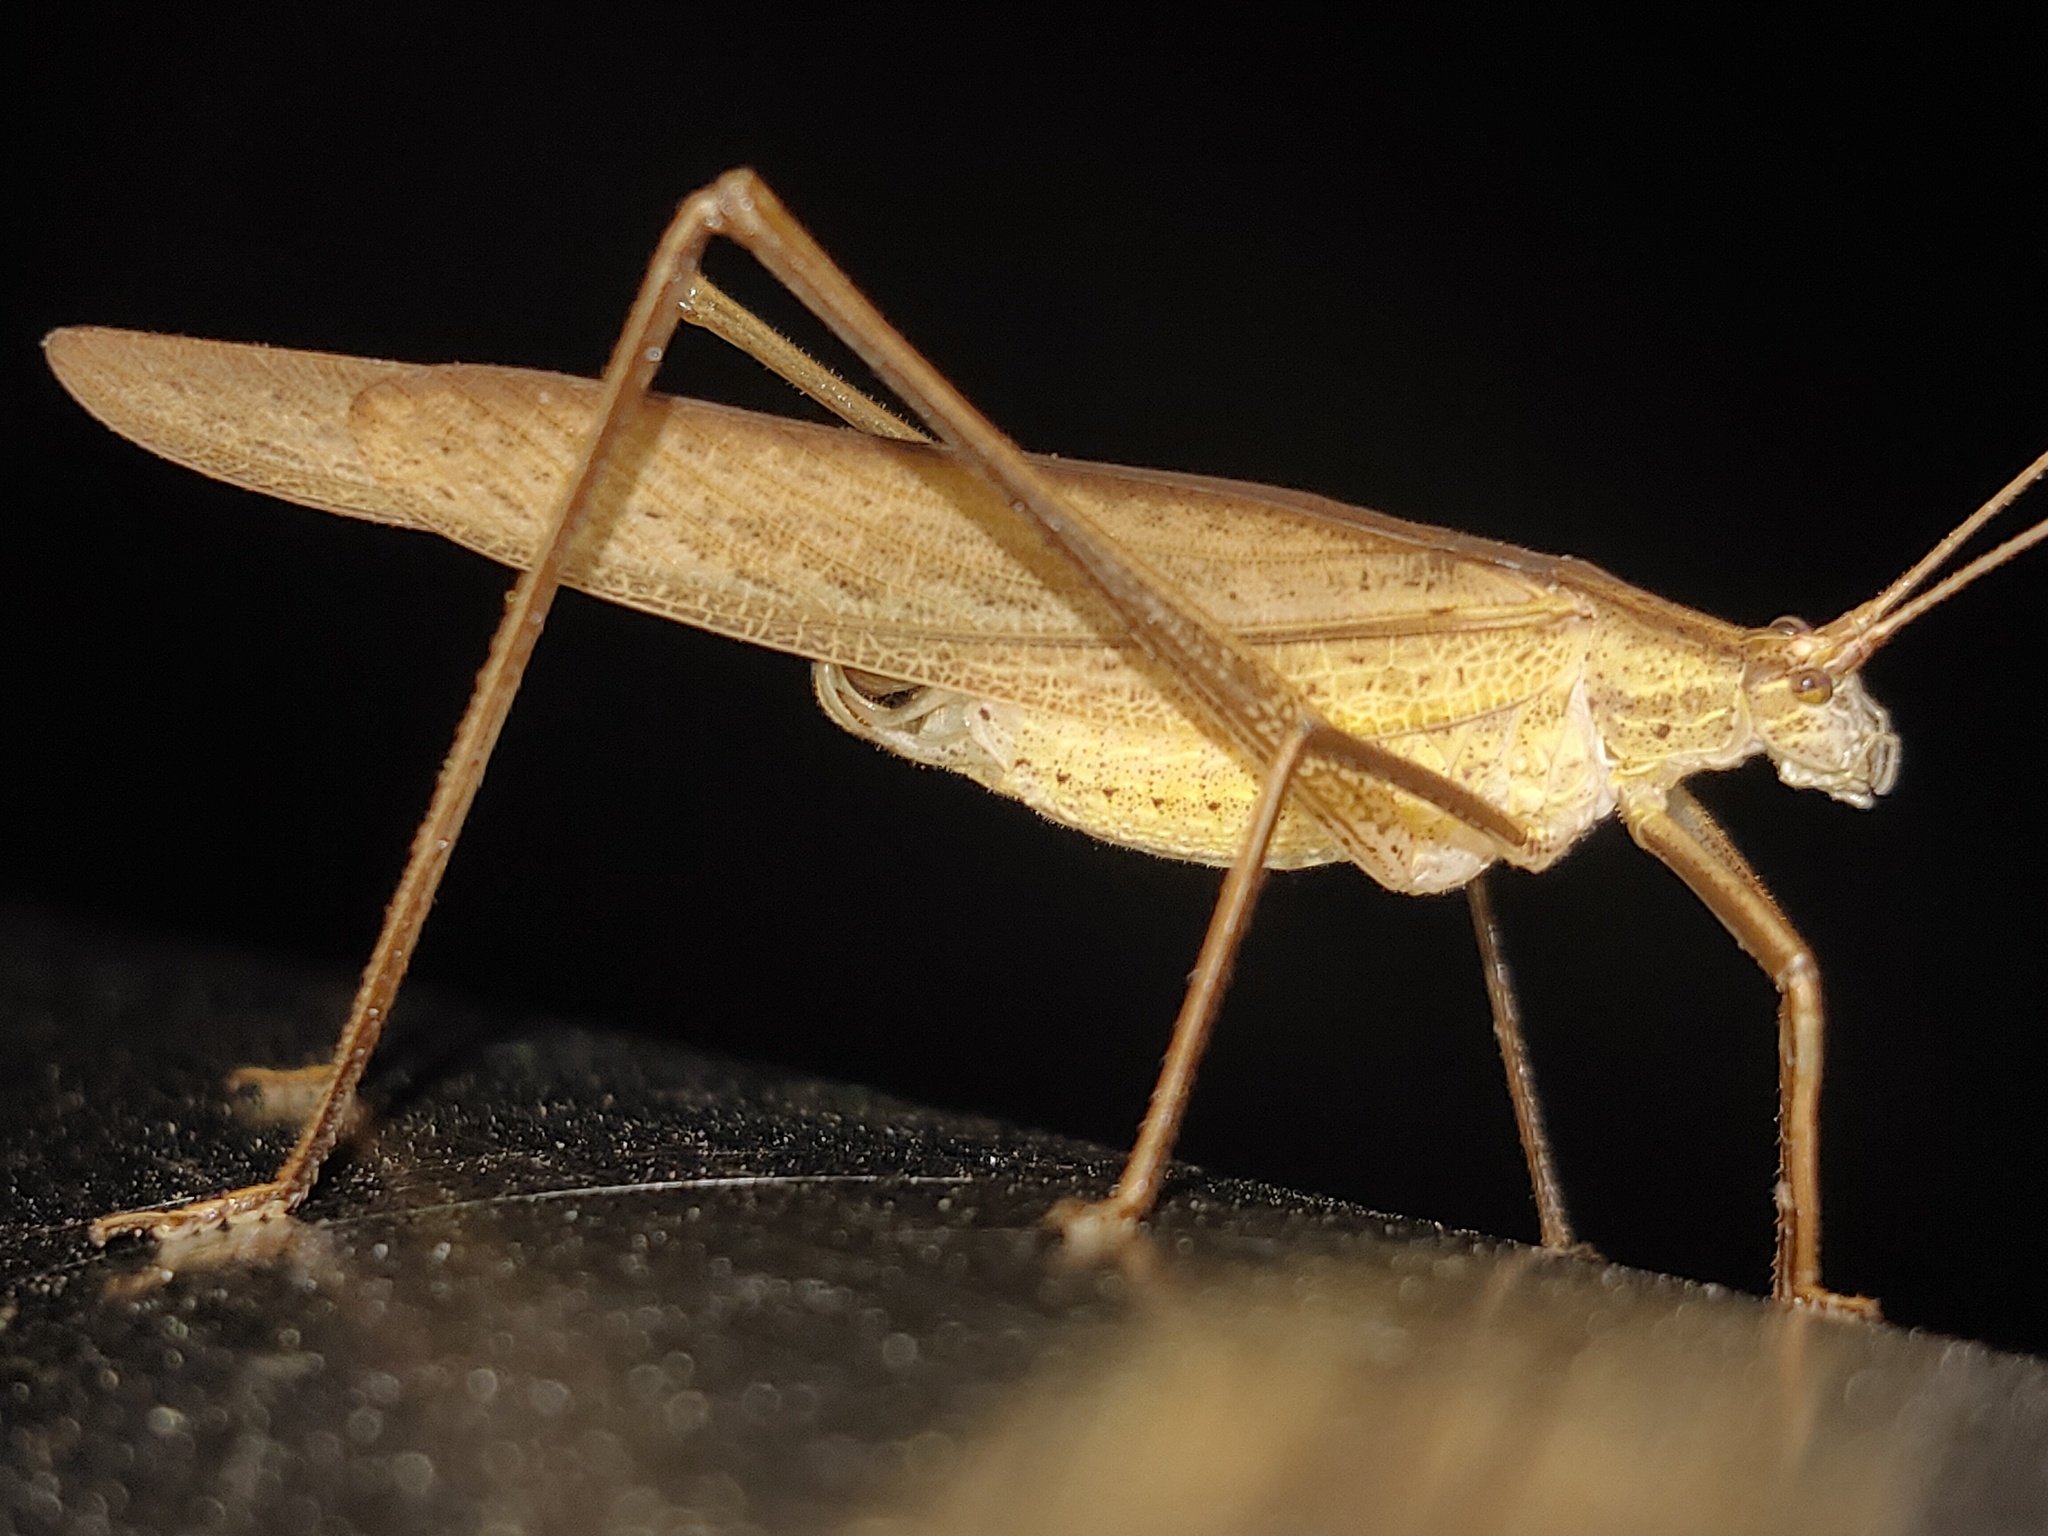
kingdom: Animalia
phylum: Arthropoda
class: Insecta
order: Orthoptera
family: Tettigoniidae
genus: Ducetia
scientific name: Ducetia japonica
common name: Pacific ducetia
